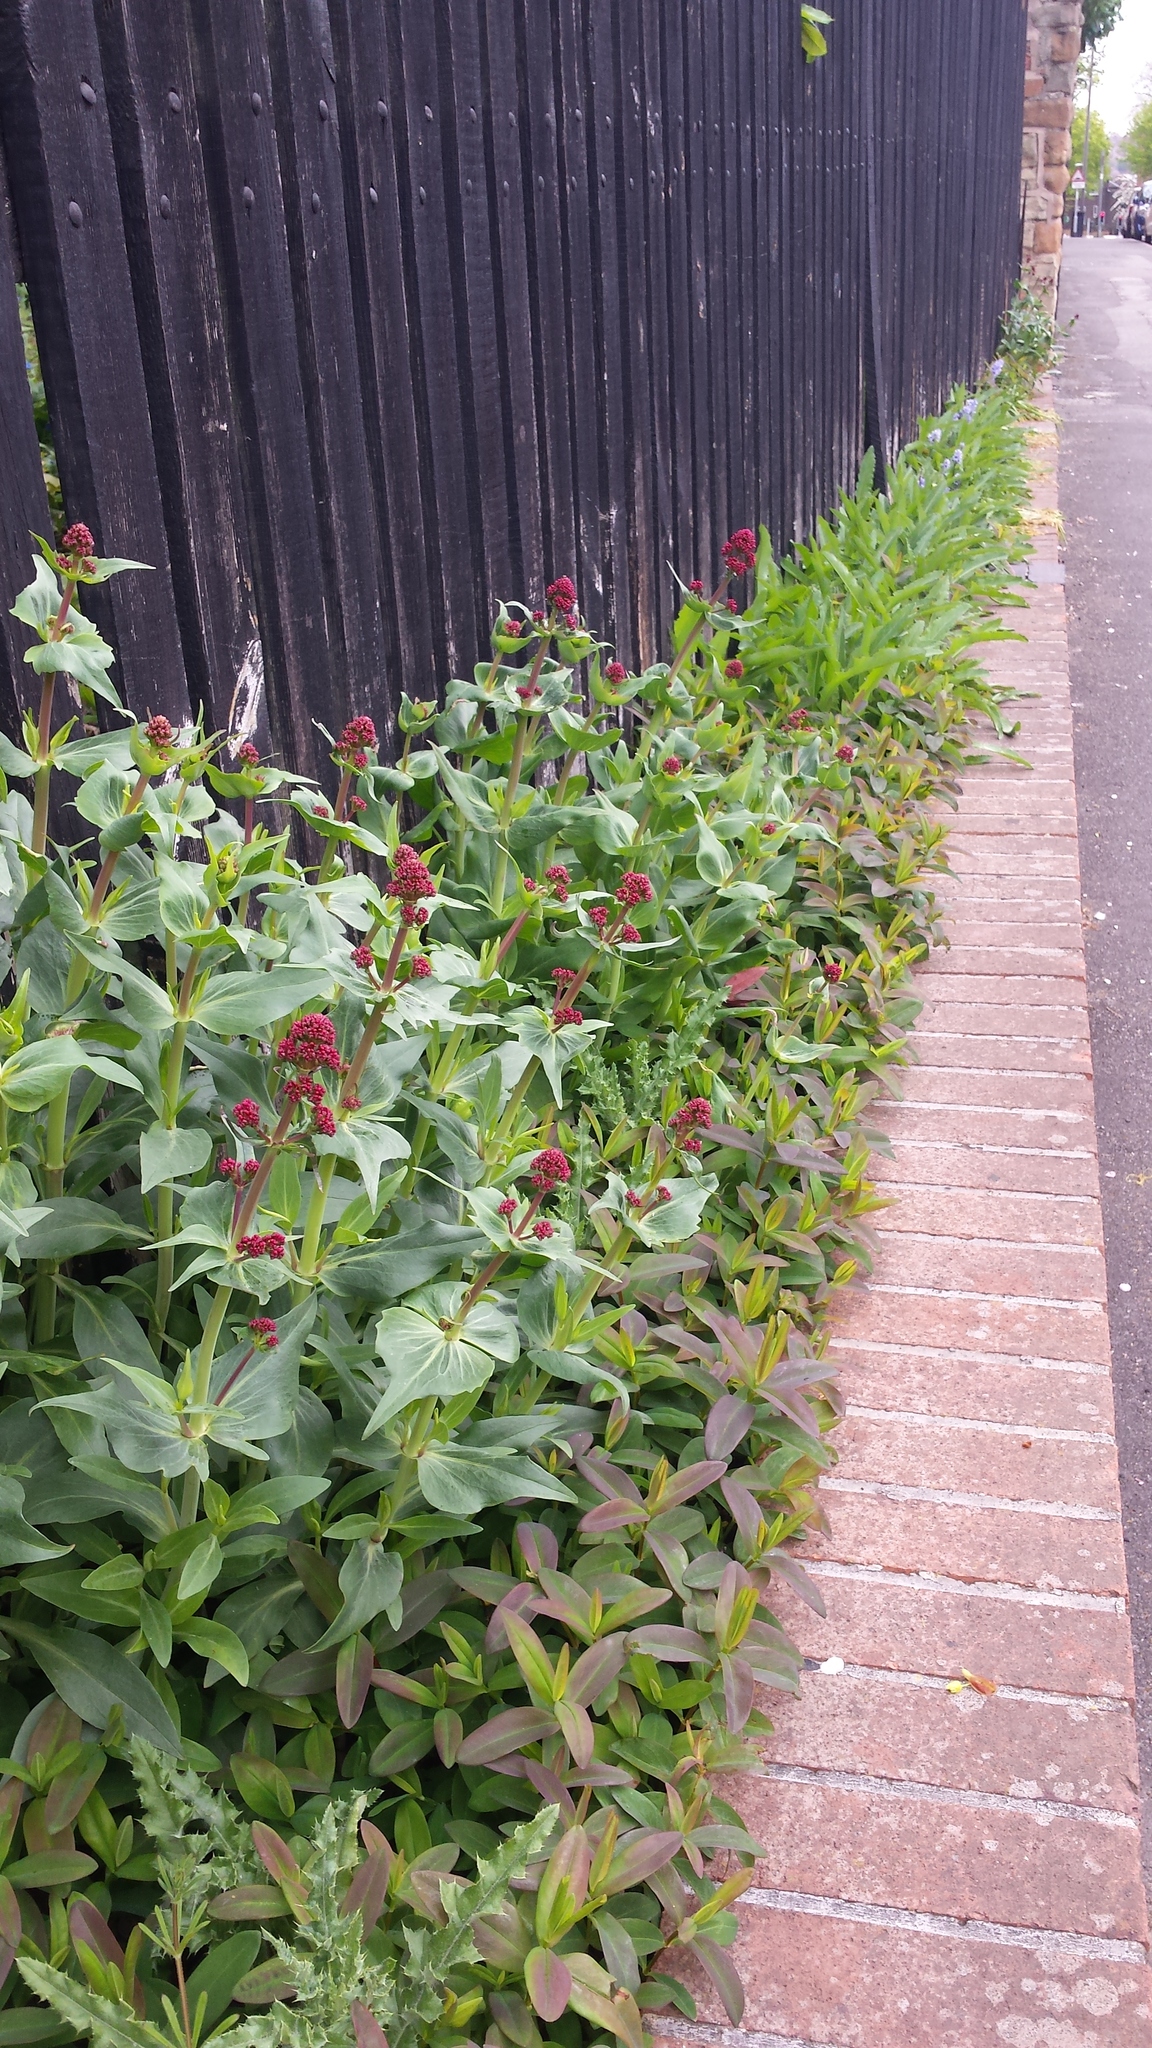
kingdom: Plantae
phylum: Tracheophyta
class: Magnoliopsida
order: Dipsacales
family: Caprifoliaceae
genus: Centranthus
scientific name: Centranthus ruber
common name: Red valerian
